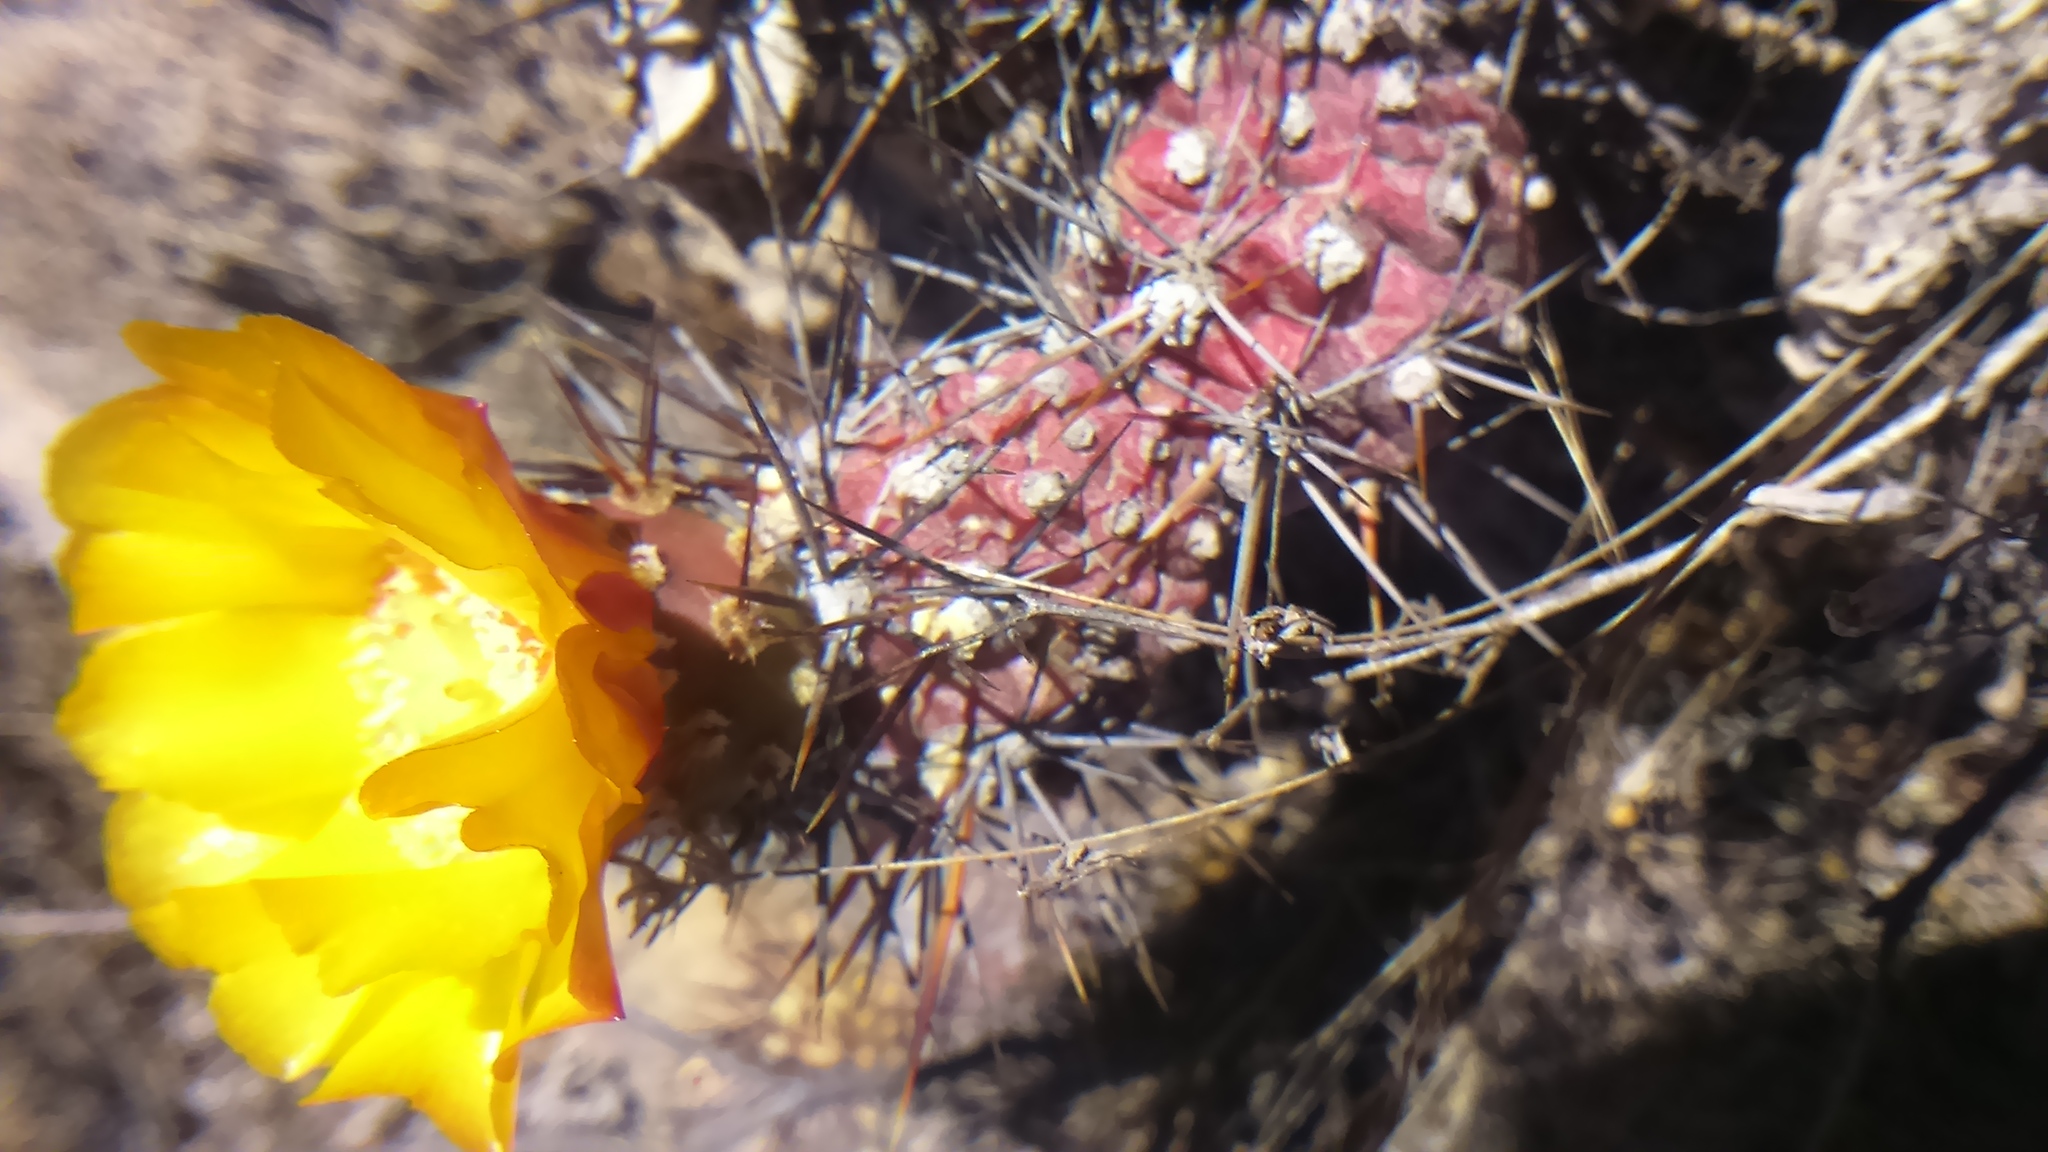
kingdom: Plantae
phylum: Tracheophyta
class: Magnoliopsida
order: Caryophyllales
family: Cactaceae
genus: Cumulopuntia
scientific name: Cumulopuntia leucophaea
